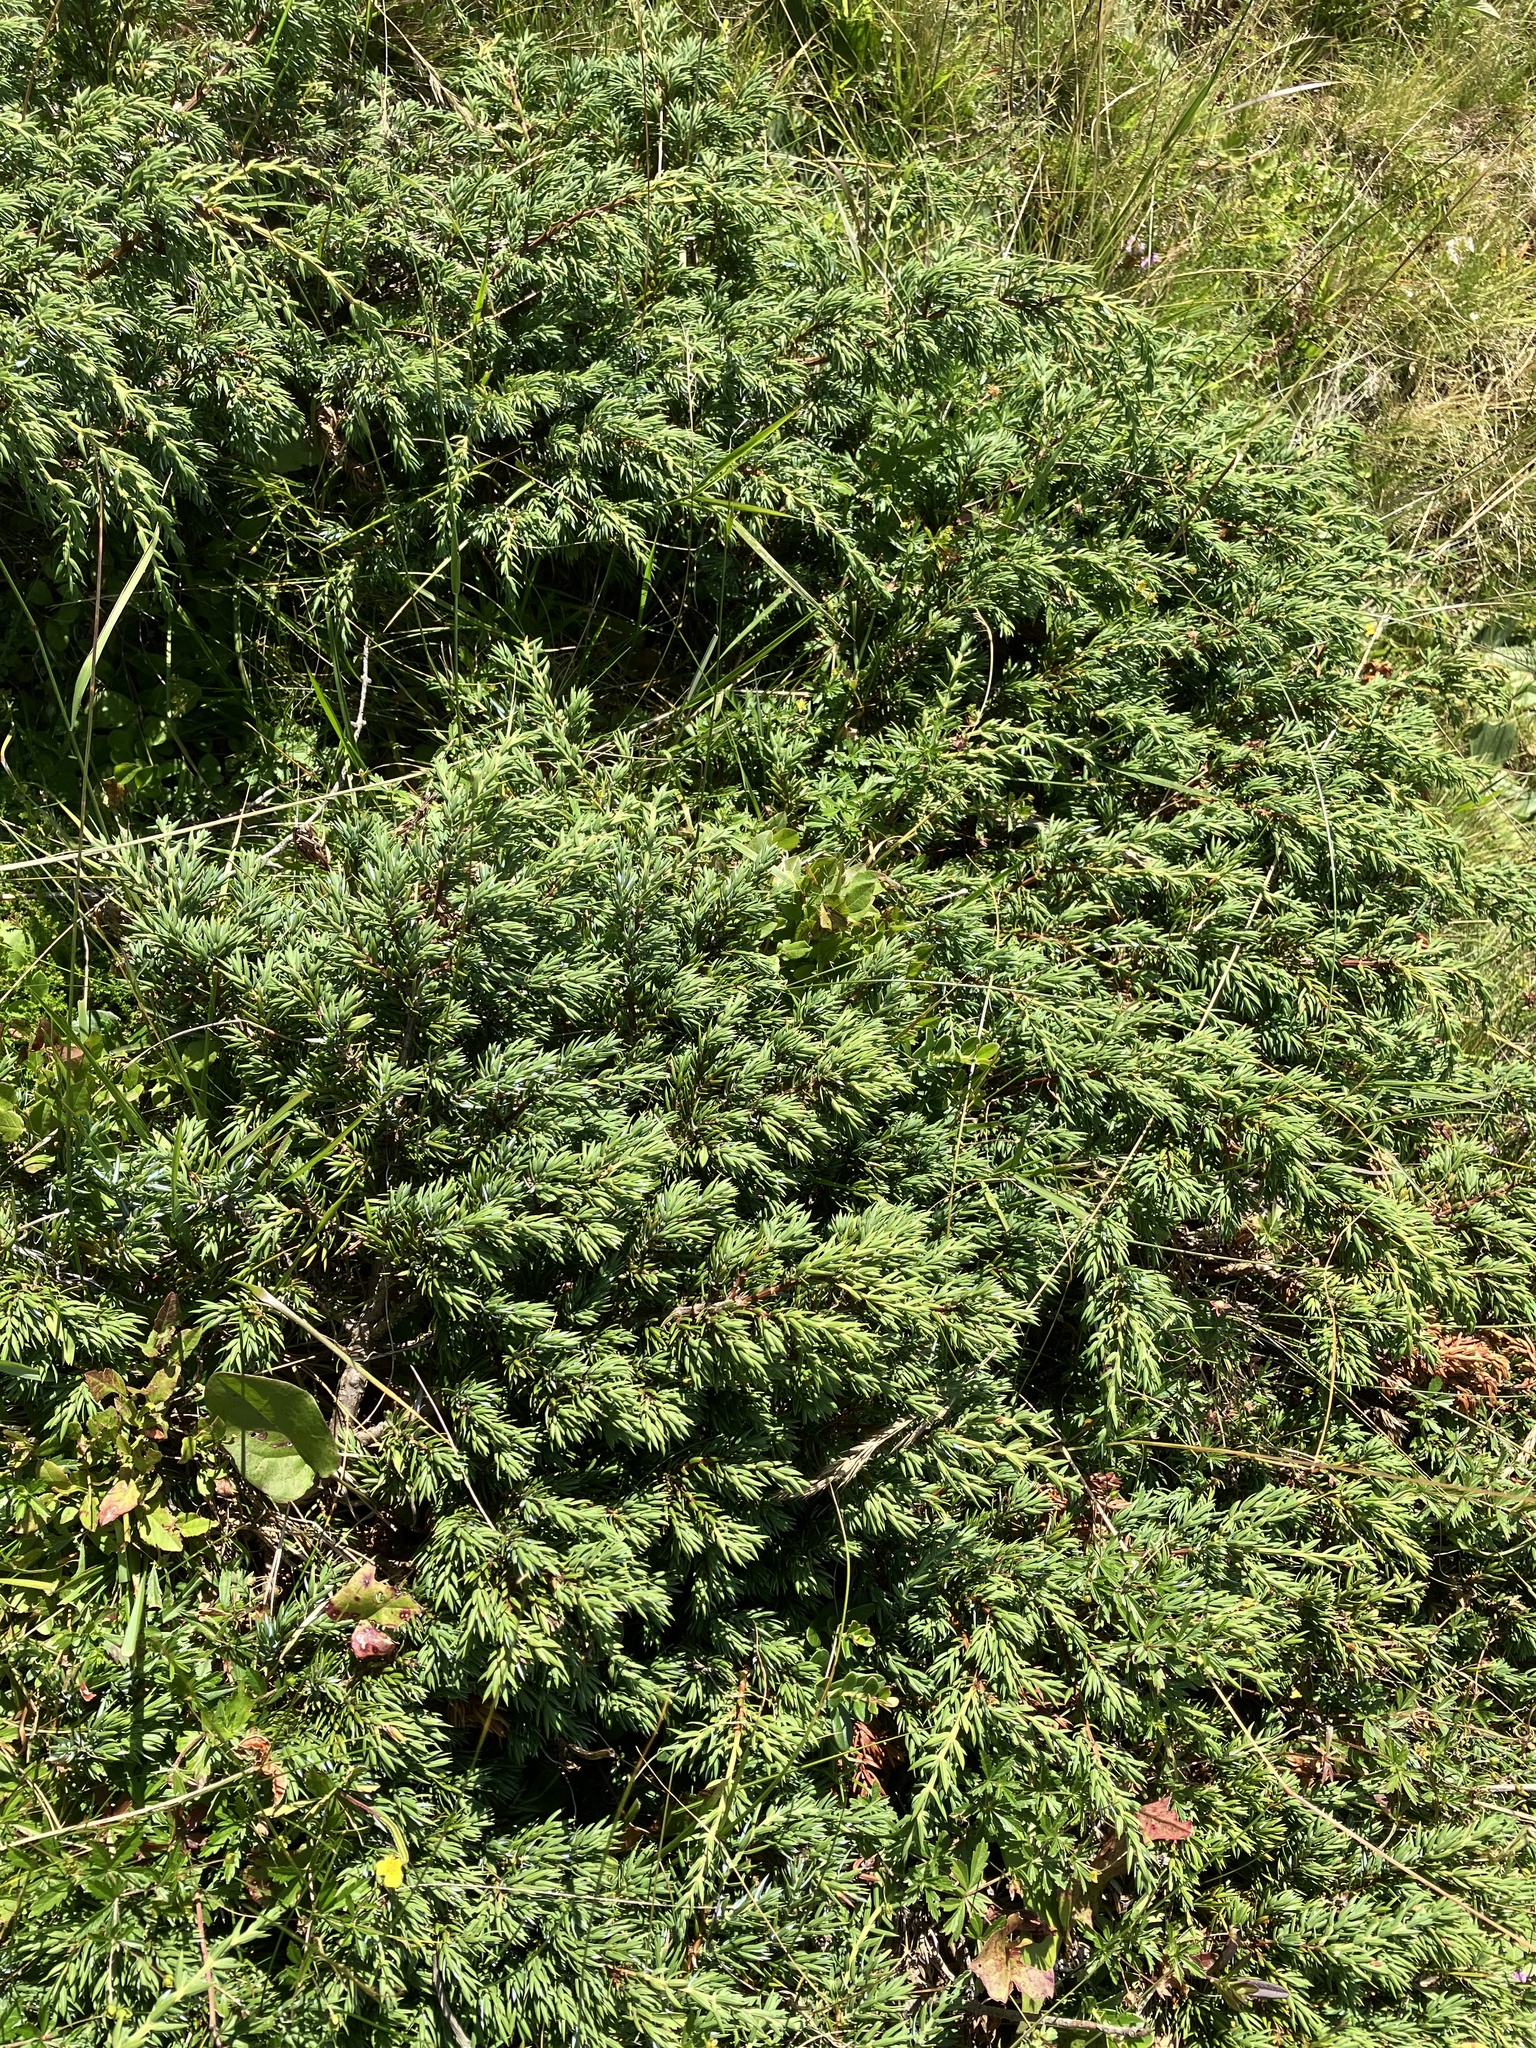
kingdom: Plantae
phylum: Tracheophyta
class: Pinopsida
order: Pinales
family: Cupressaceae
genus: Juniperus
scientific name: Juniperus communis
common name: Common juniper
